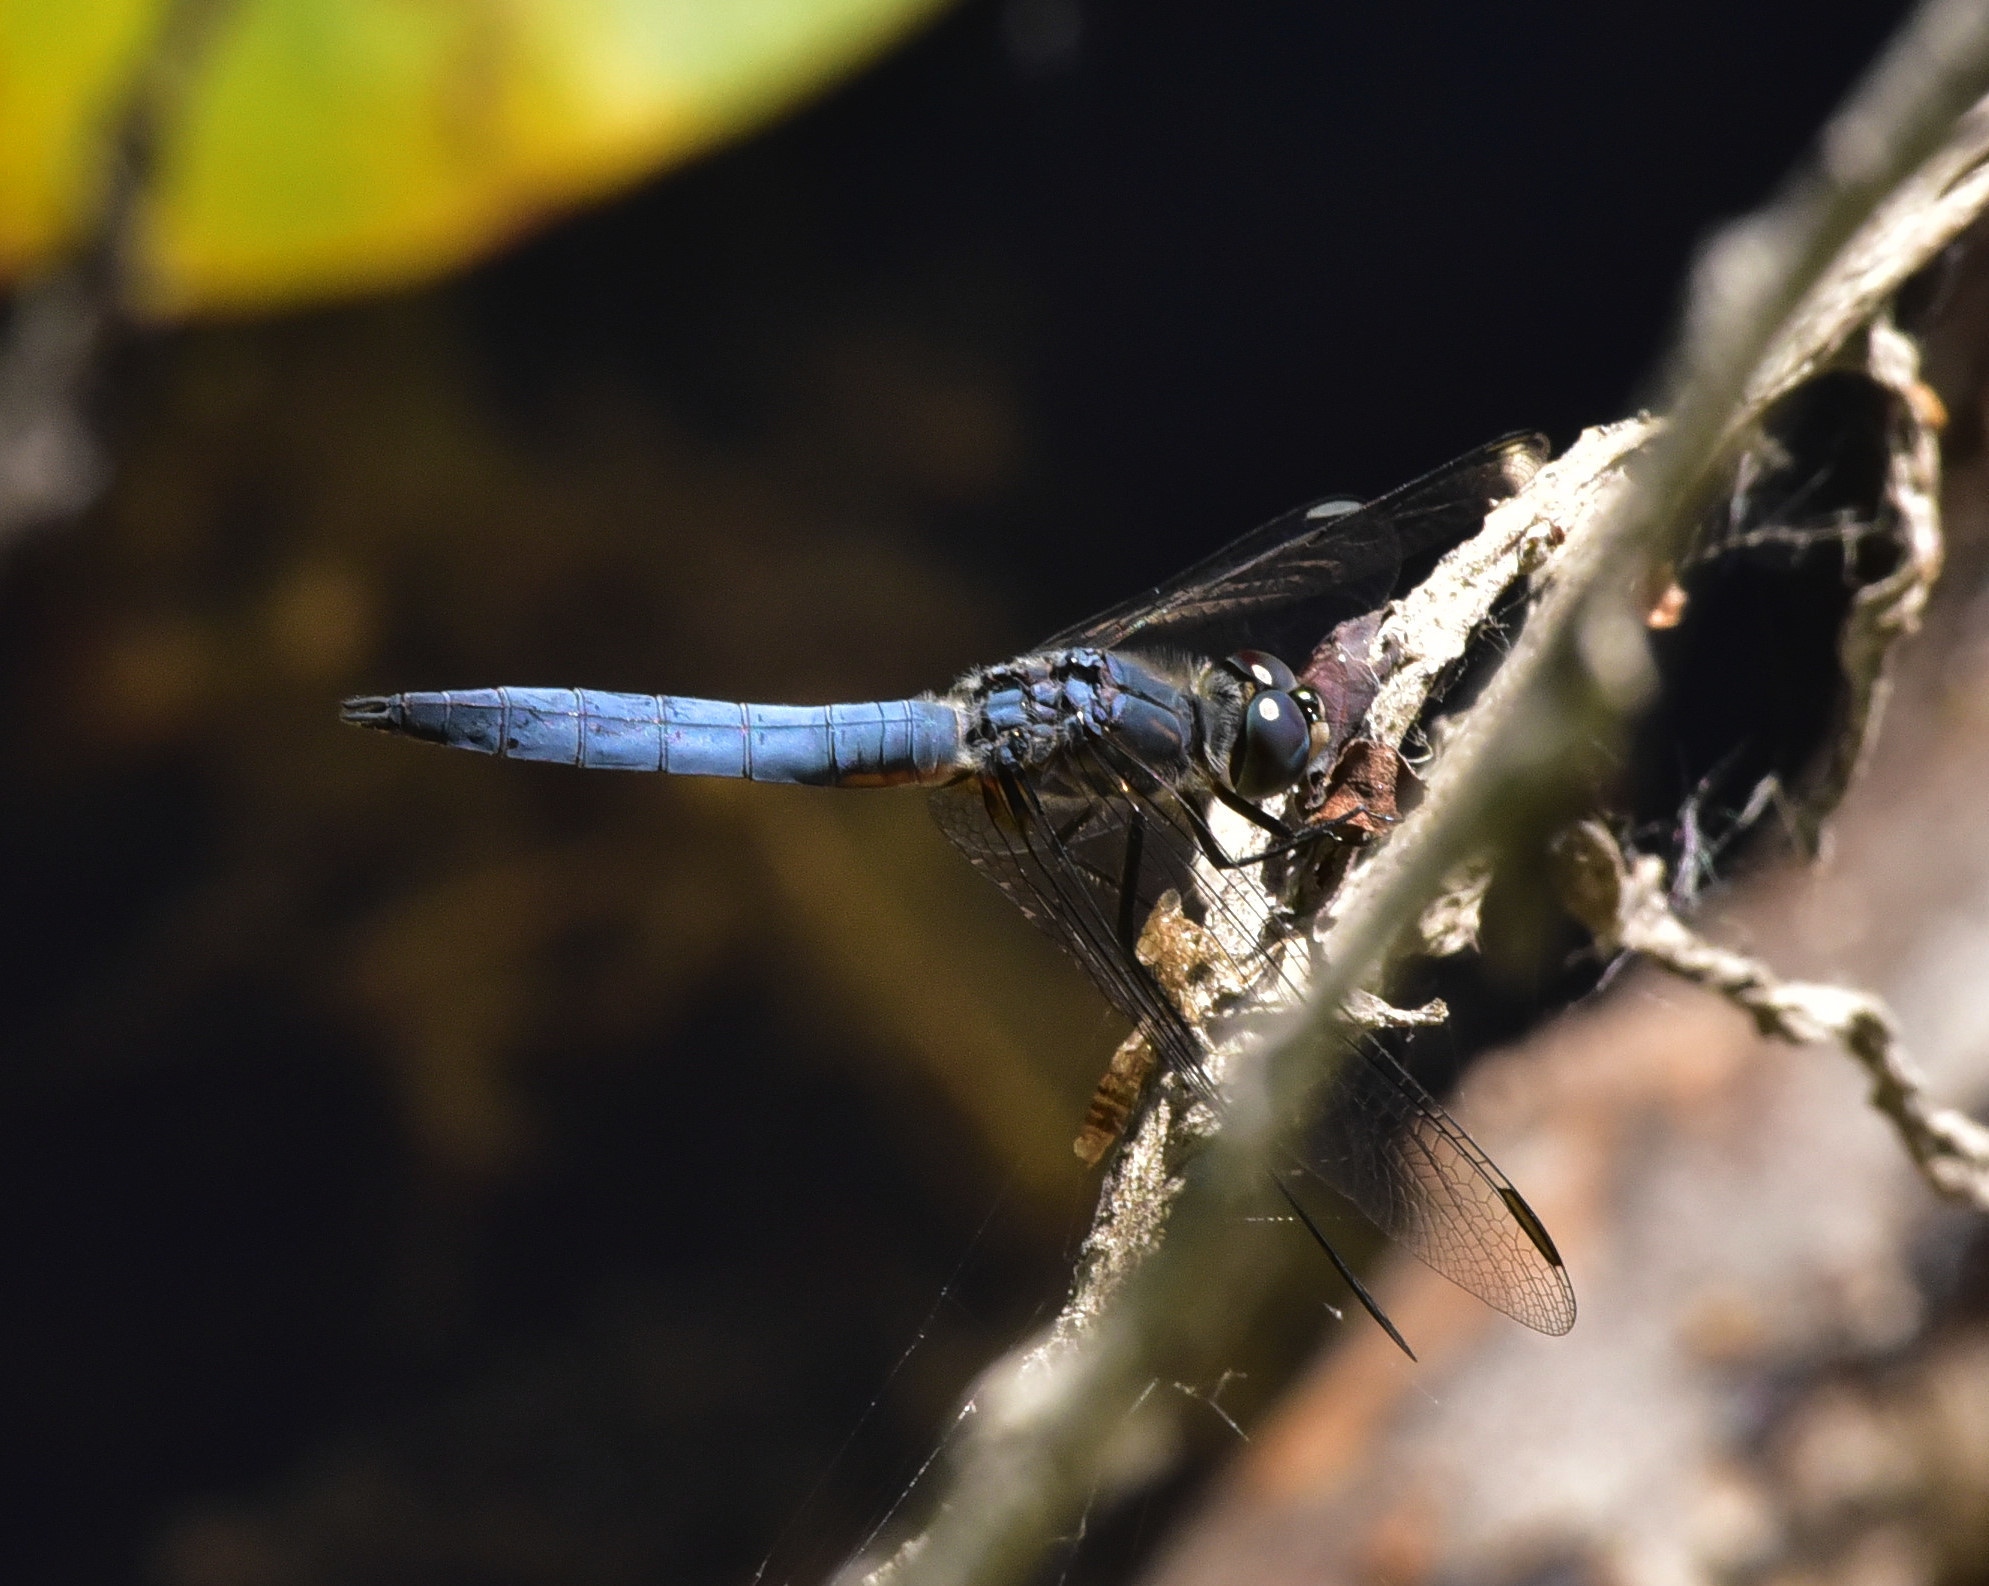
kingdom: Animalia
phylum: Arthropoda
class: Insecta
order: Odonata
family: Libellulidae
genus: Pachydiplax
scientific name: Pachydiplax longipennis
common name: Blue dasher
